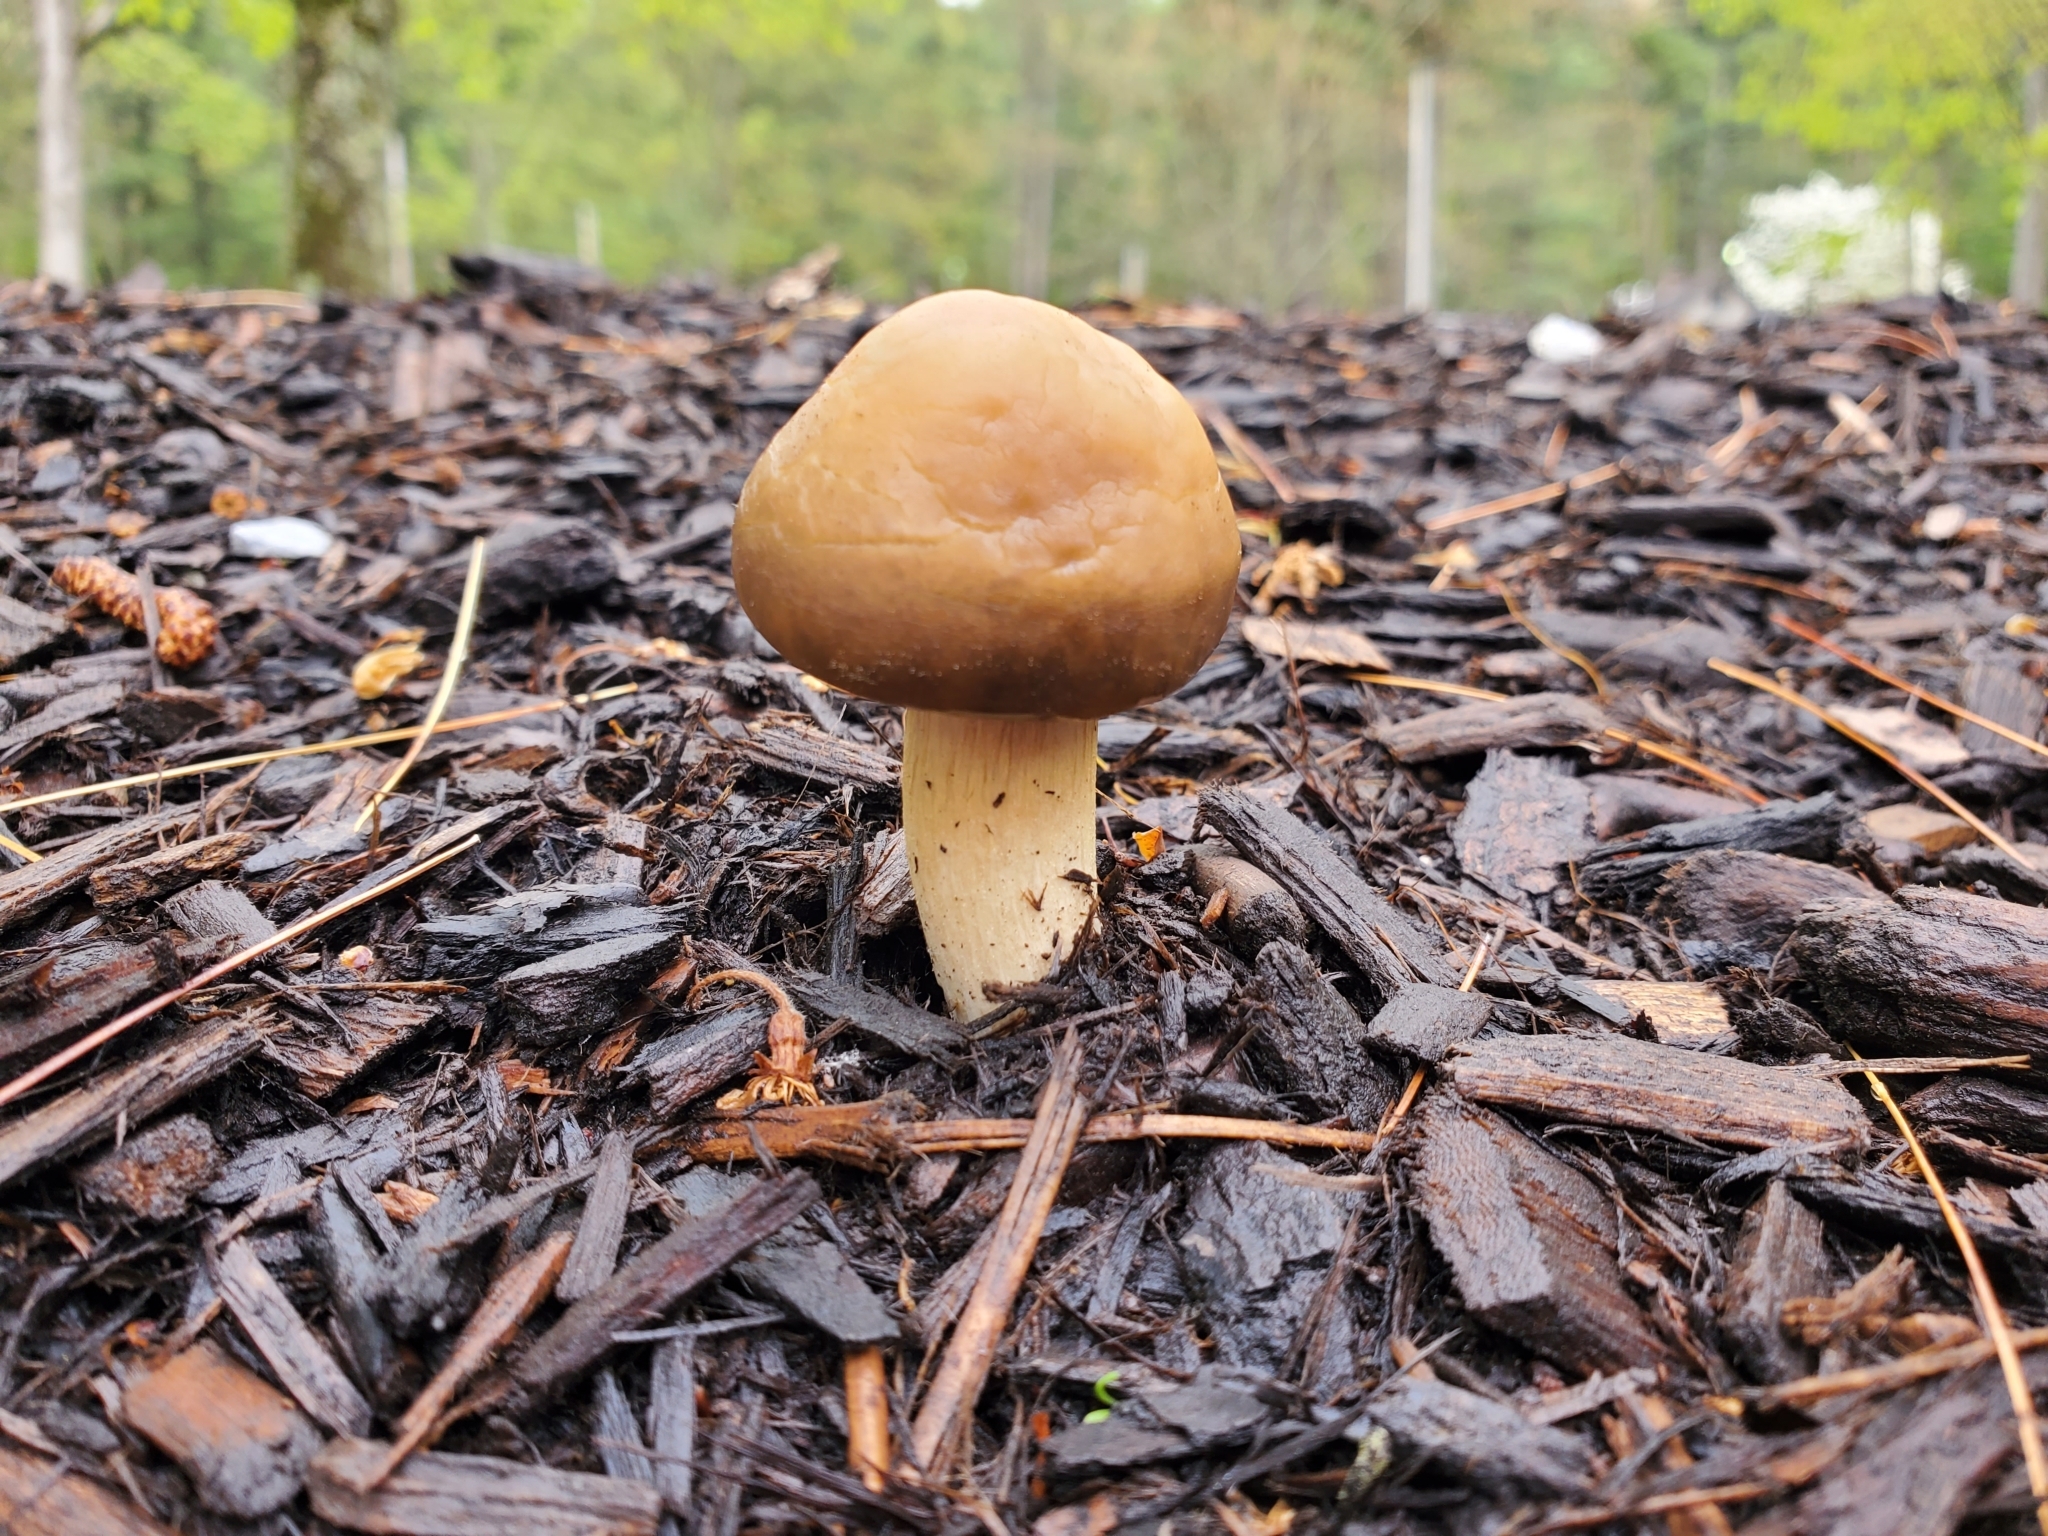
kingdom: Fungi
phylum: Basidiomycota
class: Agaricomycetes
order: Agaricales
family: Strophariaceae
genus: Agrocybe
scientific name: Agrocybe praecox
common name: Spring fieldcap
